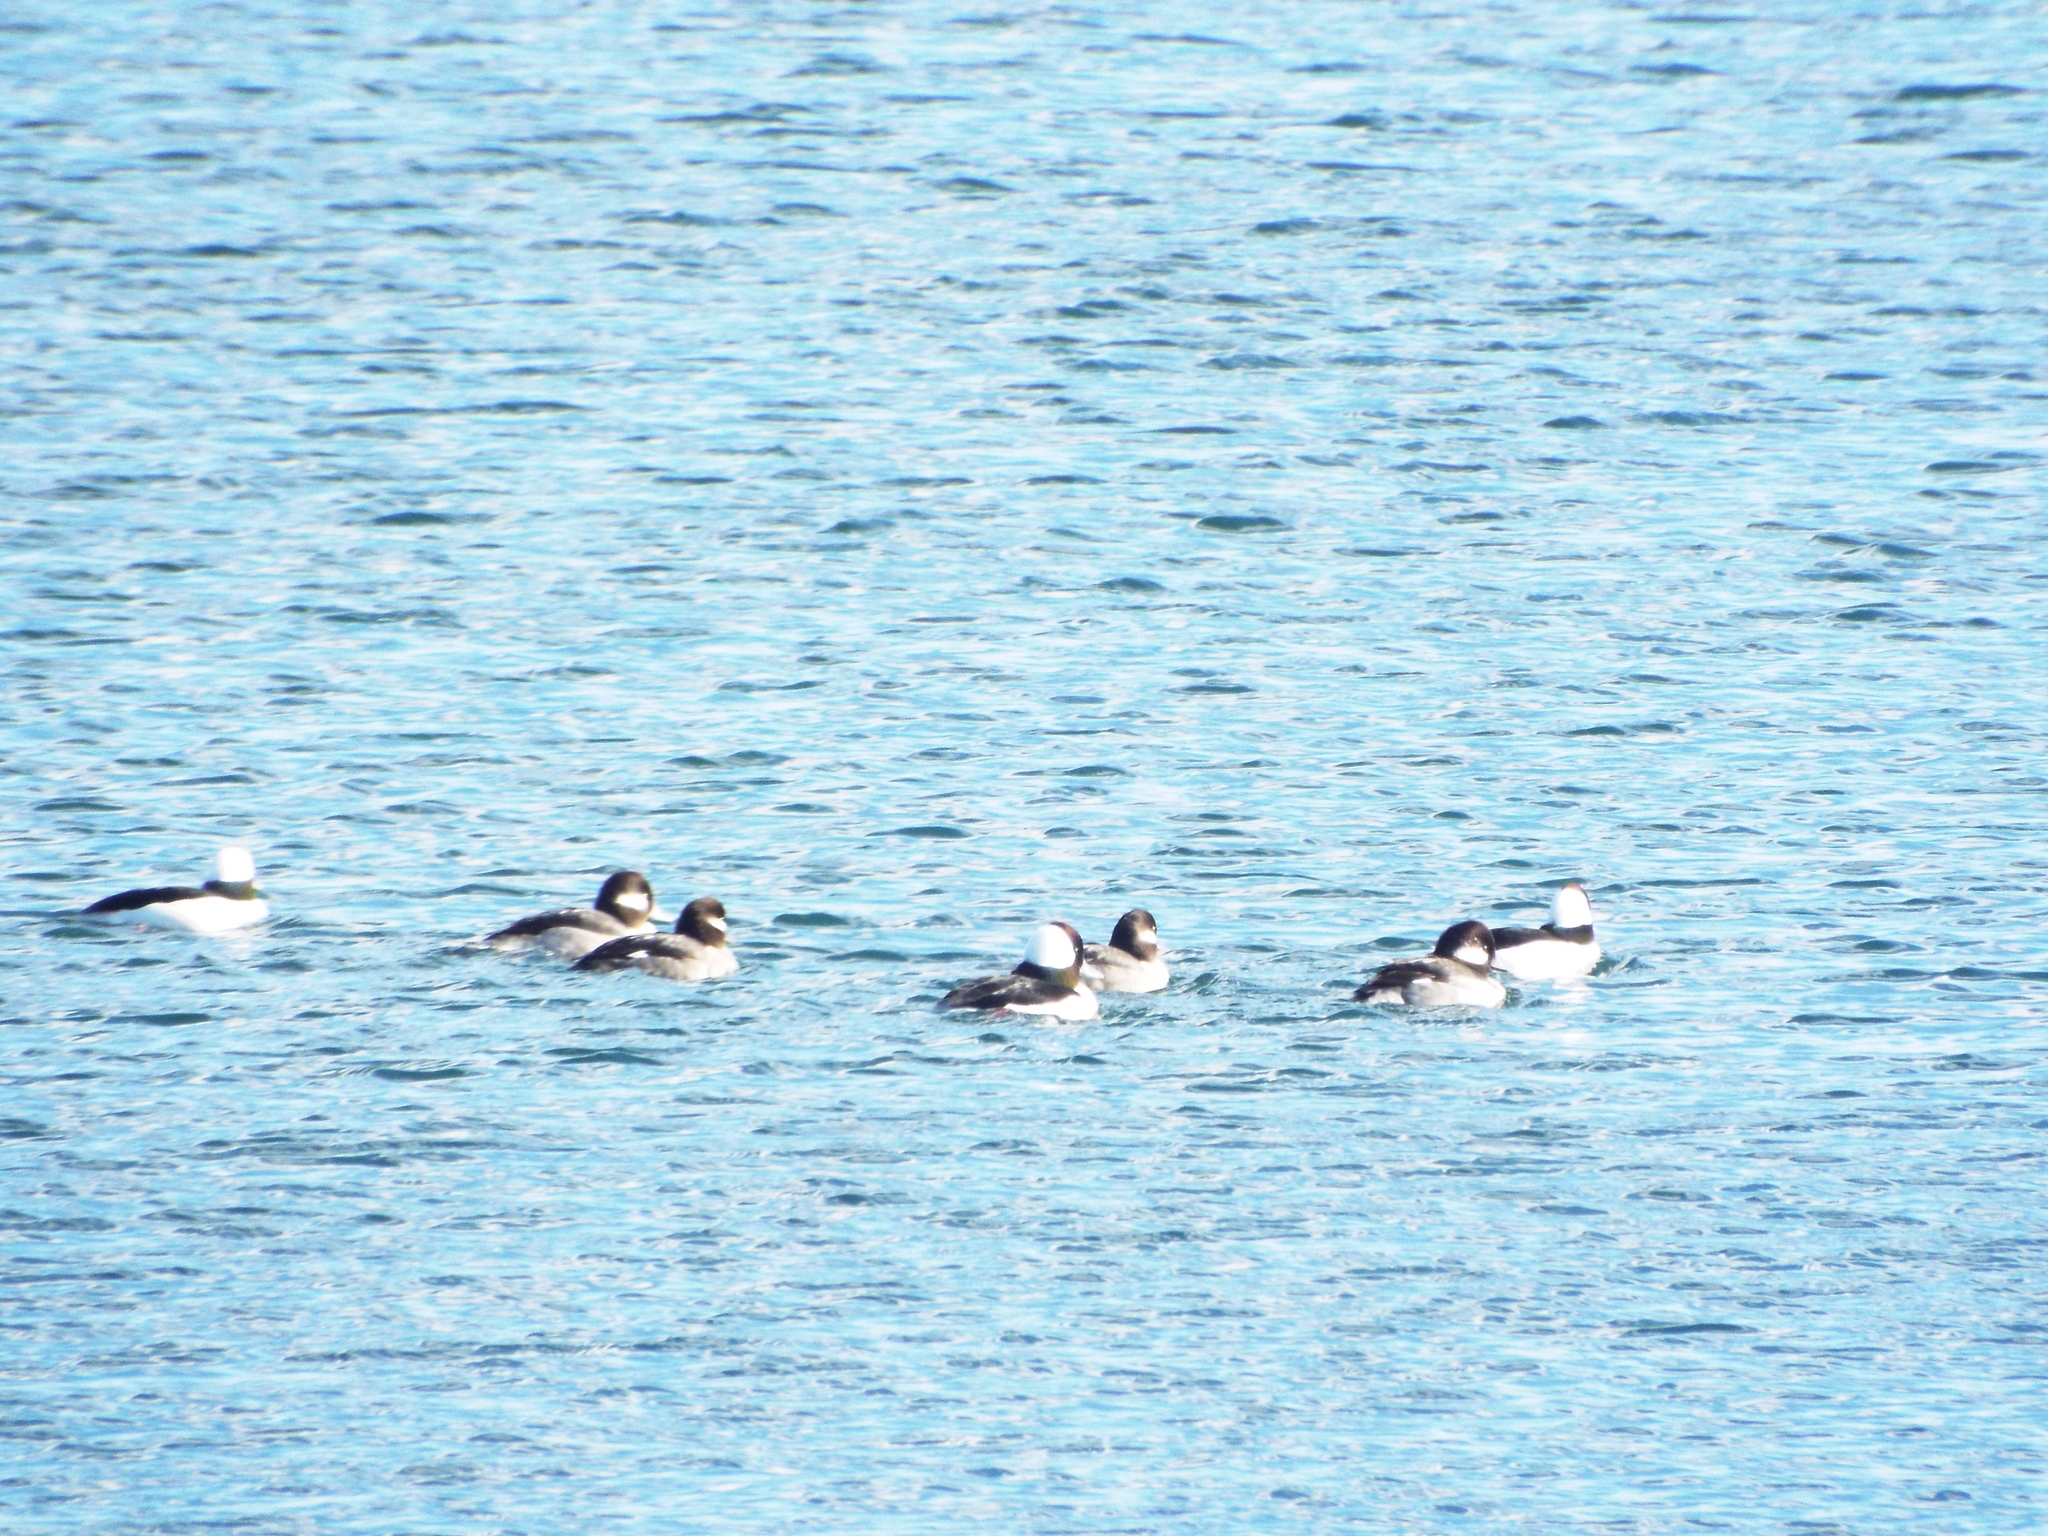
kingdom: Animalia
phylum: Chordata
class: Aves
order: Anseriformes
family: Anatidae
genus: Bucephala
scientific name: Bucephala albeola
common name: Bufflehead
